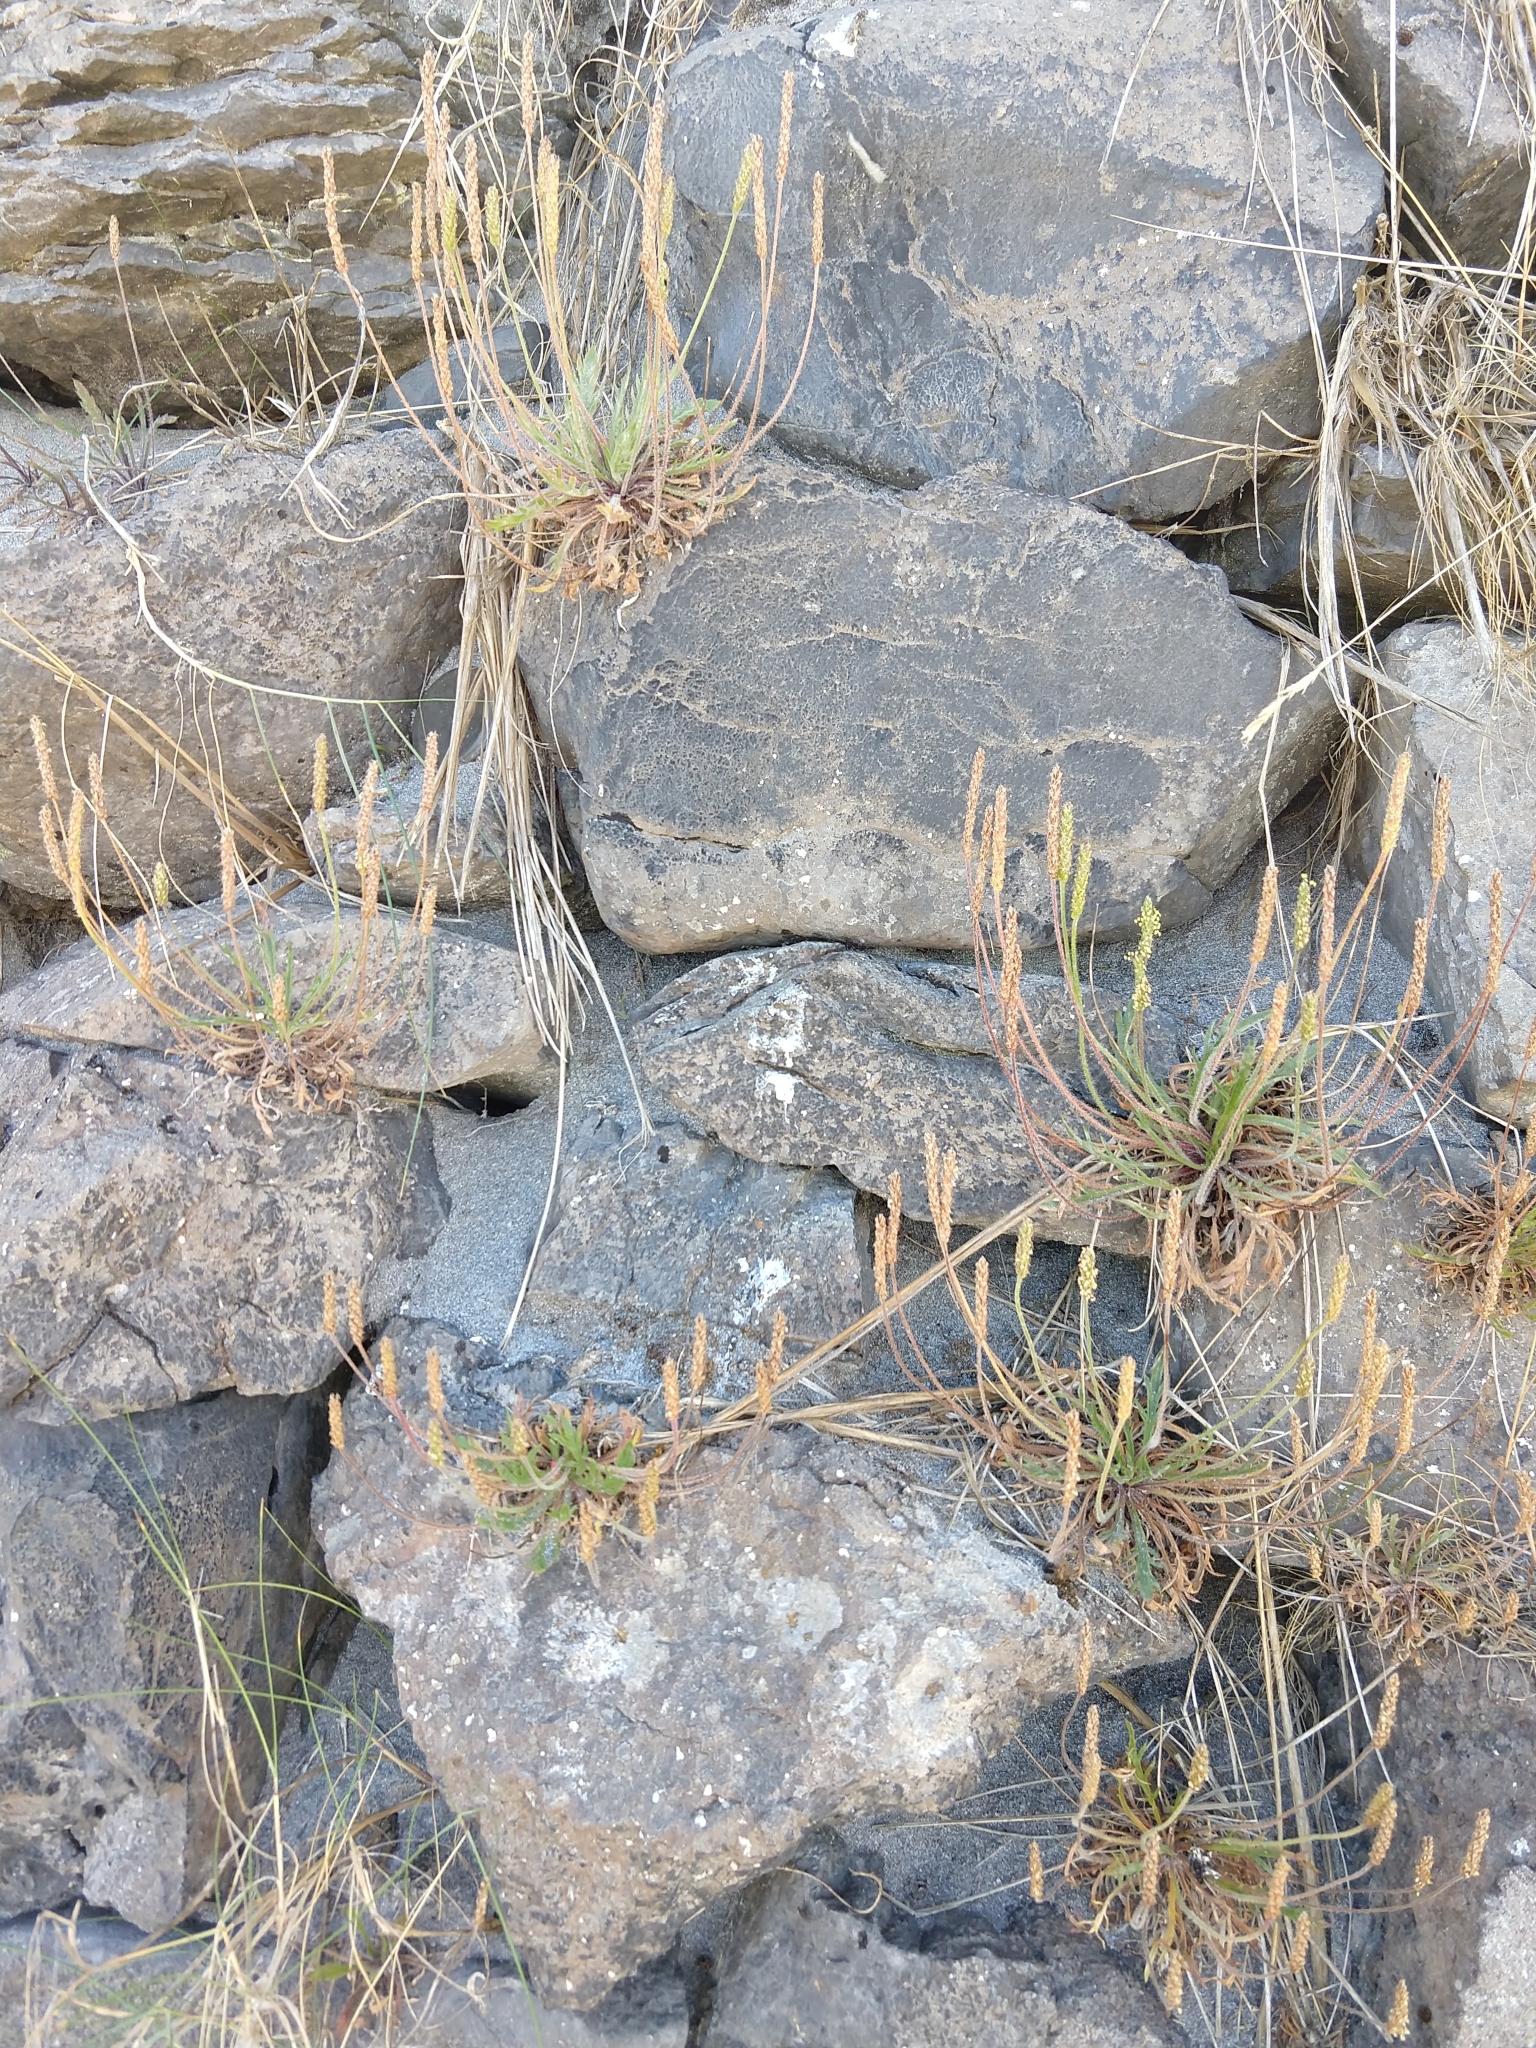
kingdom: Plantae
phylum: Tracheophyta
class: Magnoliopsida
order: Lamiales
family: Plantaginaceae
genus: Plantago
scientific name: Plantago coronopus
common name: Buck's-horn plantain
